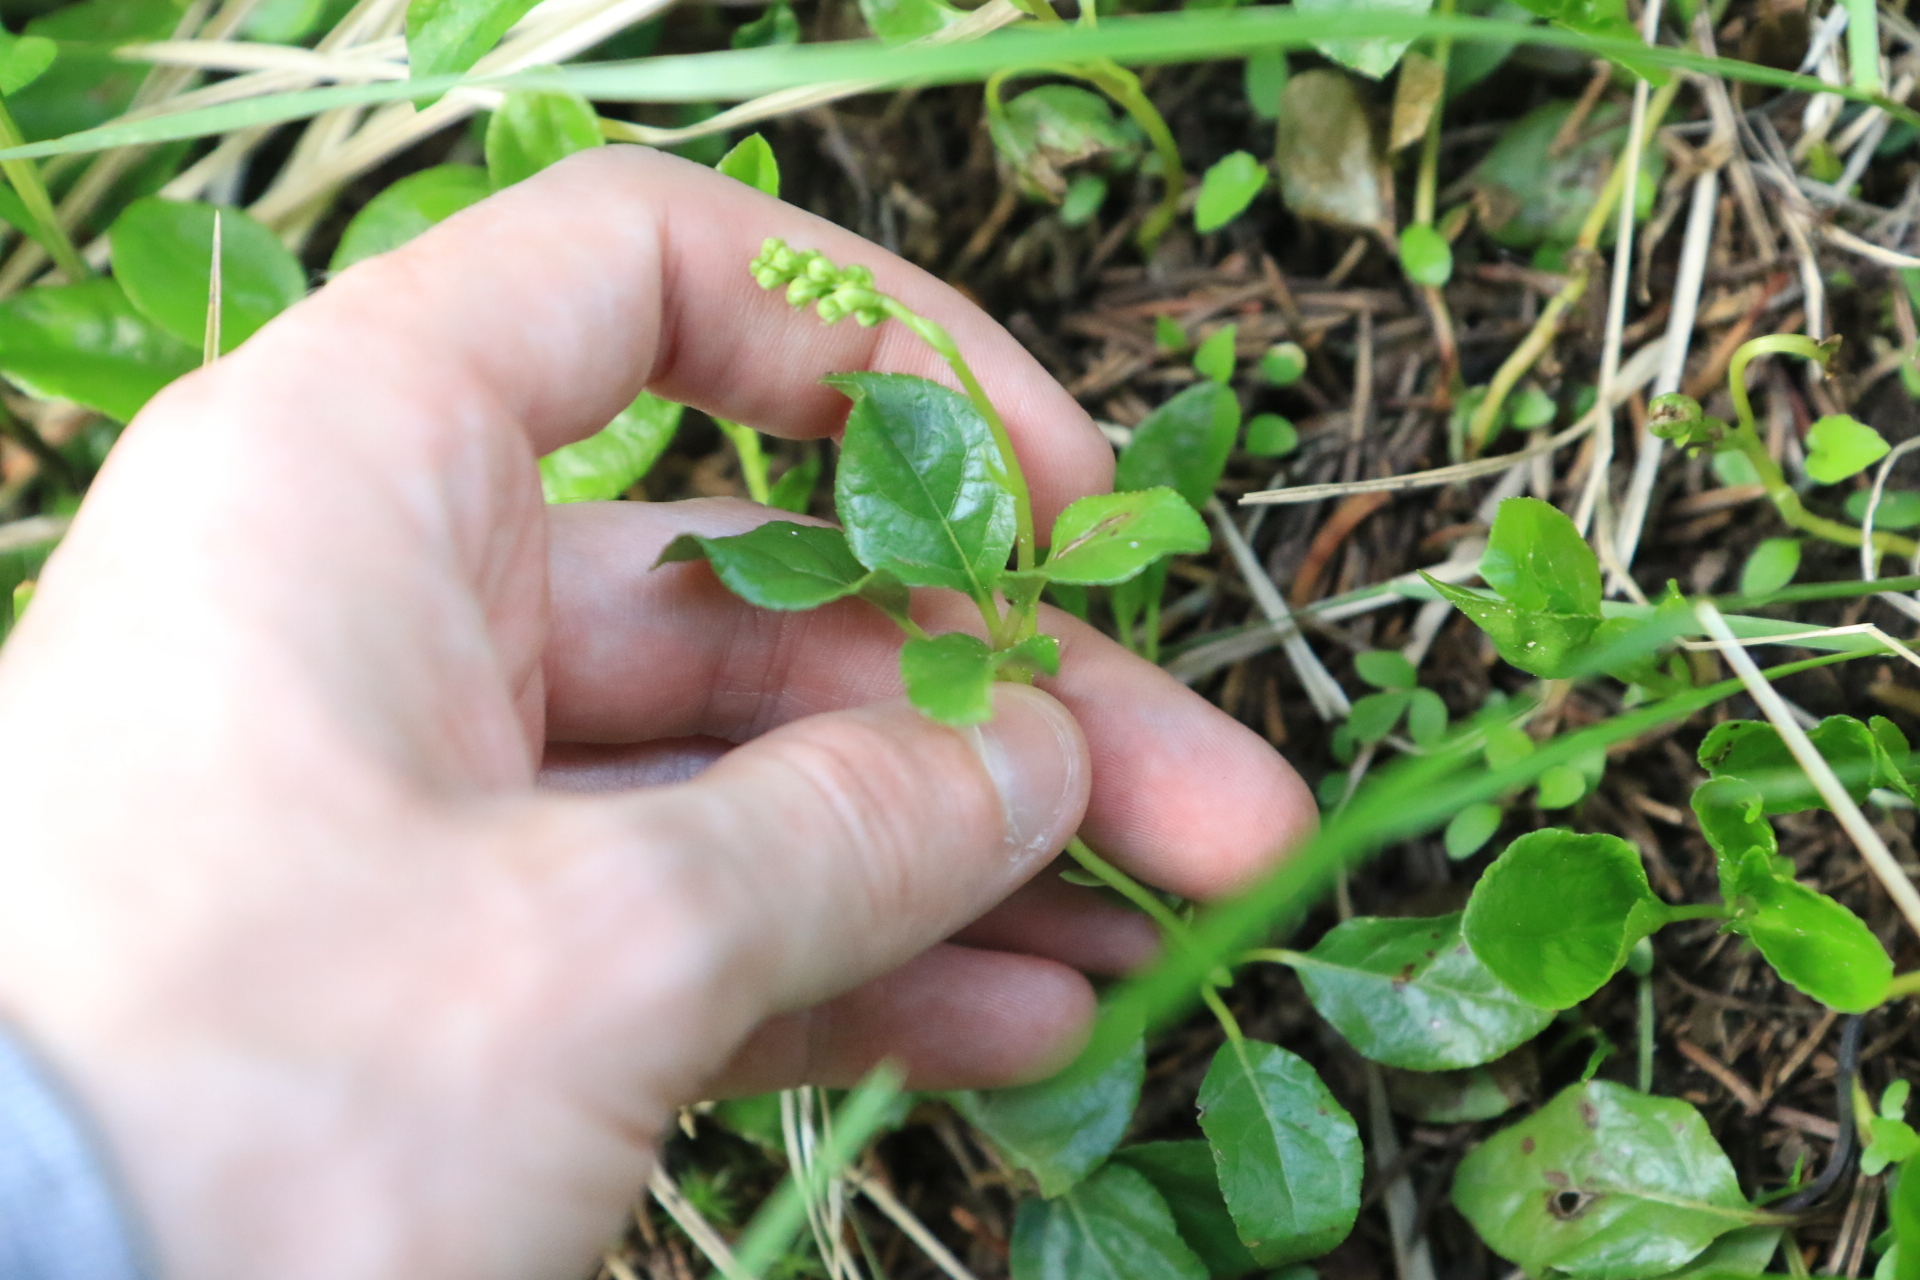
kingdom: Plantae
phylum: Tracheophyta
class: Magnoliopsida
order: Ericales
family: Ericaceae
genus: Orthilia
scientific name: Orthilia secunda
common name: One-sided orthilia
